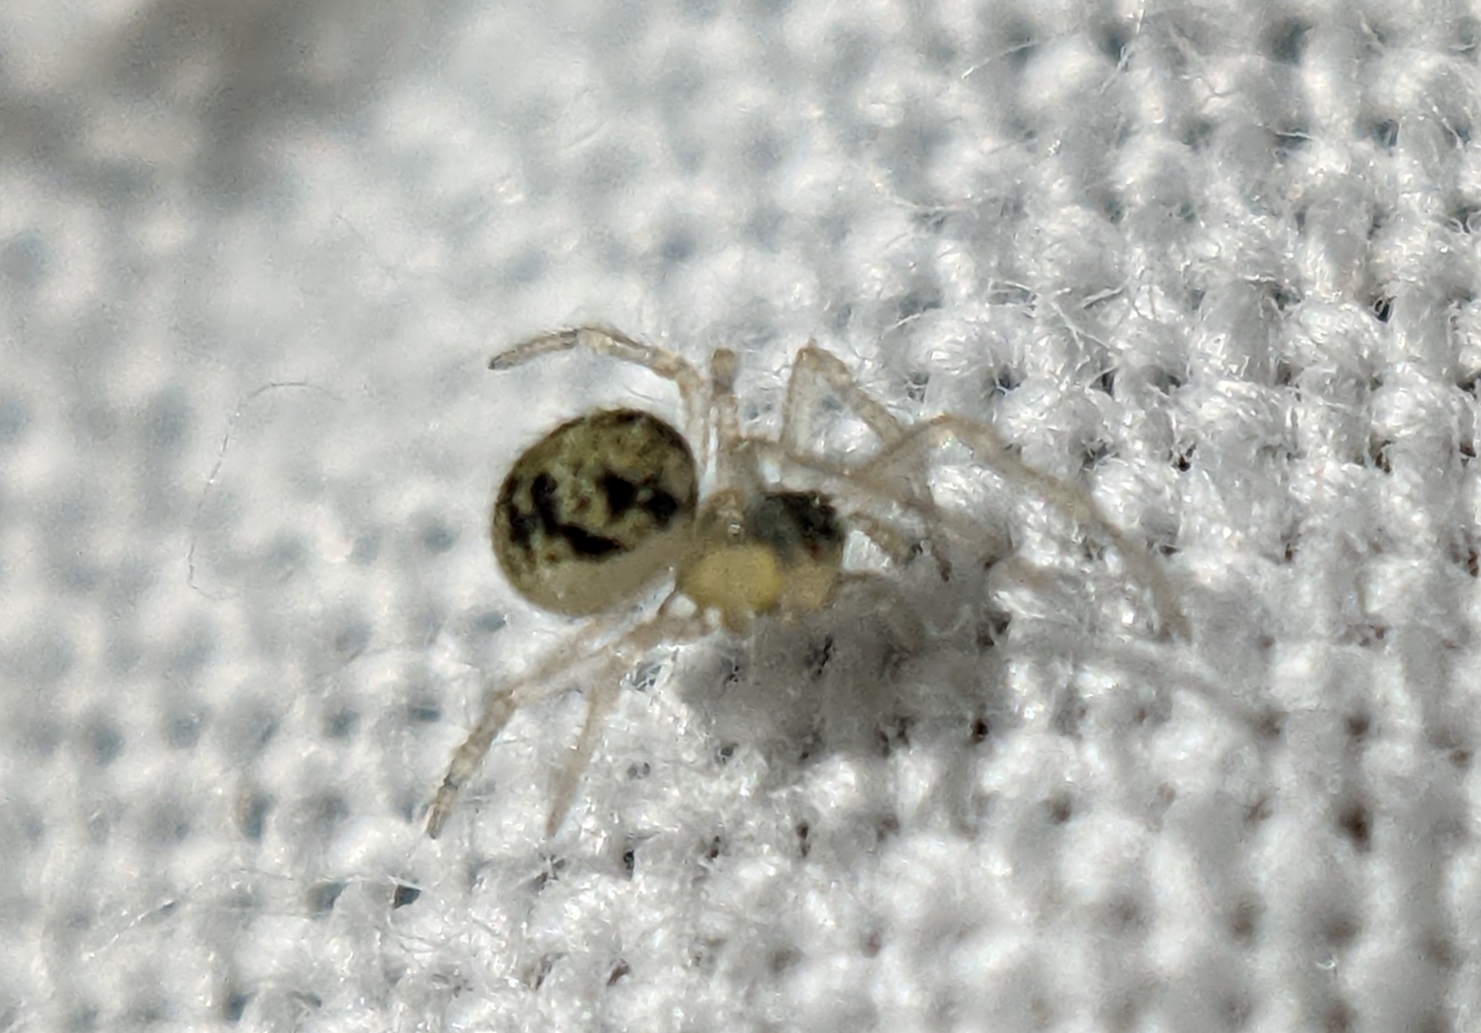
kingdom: Animalia
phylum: Arthropoda
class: Arachnida
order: Araneae
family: Theridiidae
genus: Paidiscura
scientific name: Paidiscura pallens
